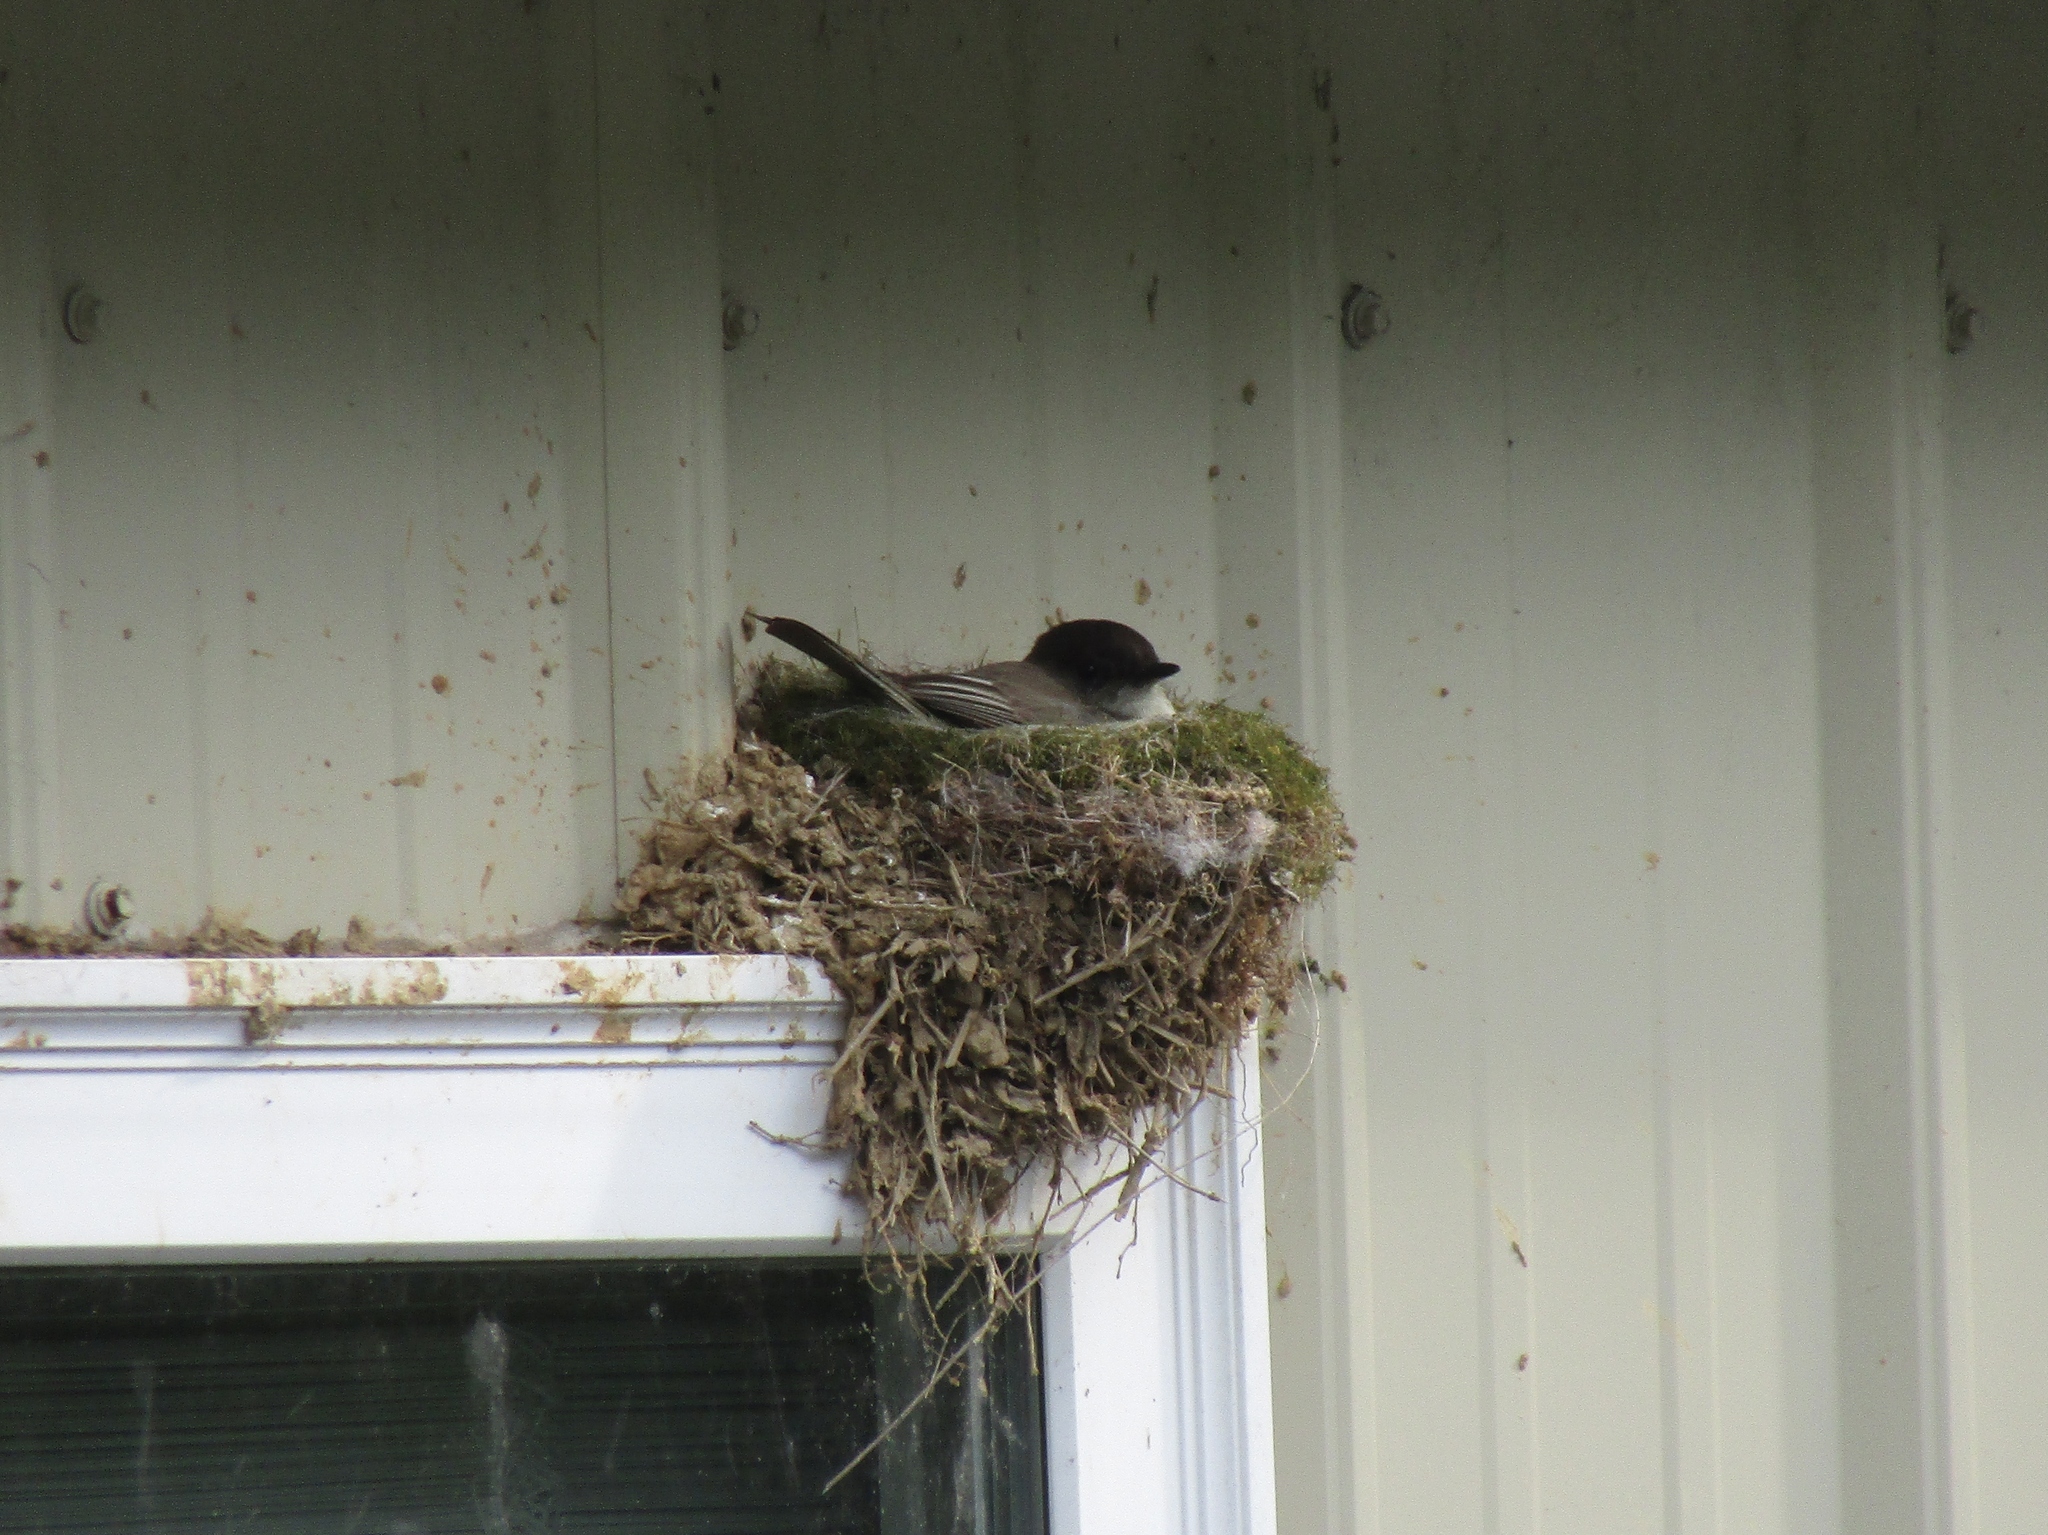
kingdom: Animalia
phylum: Chordata
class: Aves
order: Passeriformes
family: Tyrannidae
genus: Sayornis
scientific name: Sayornis phoebe
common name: Eastern phoebe
